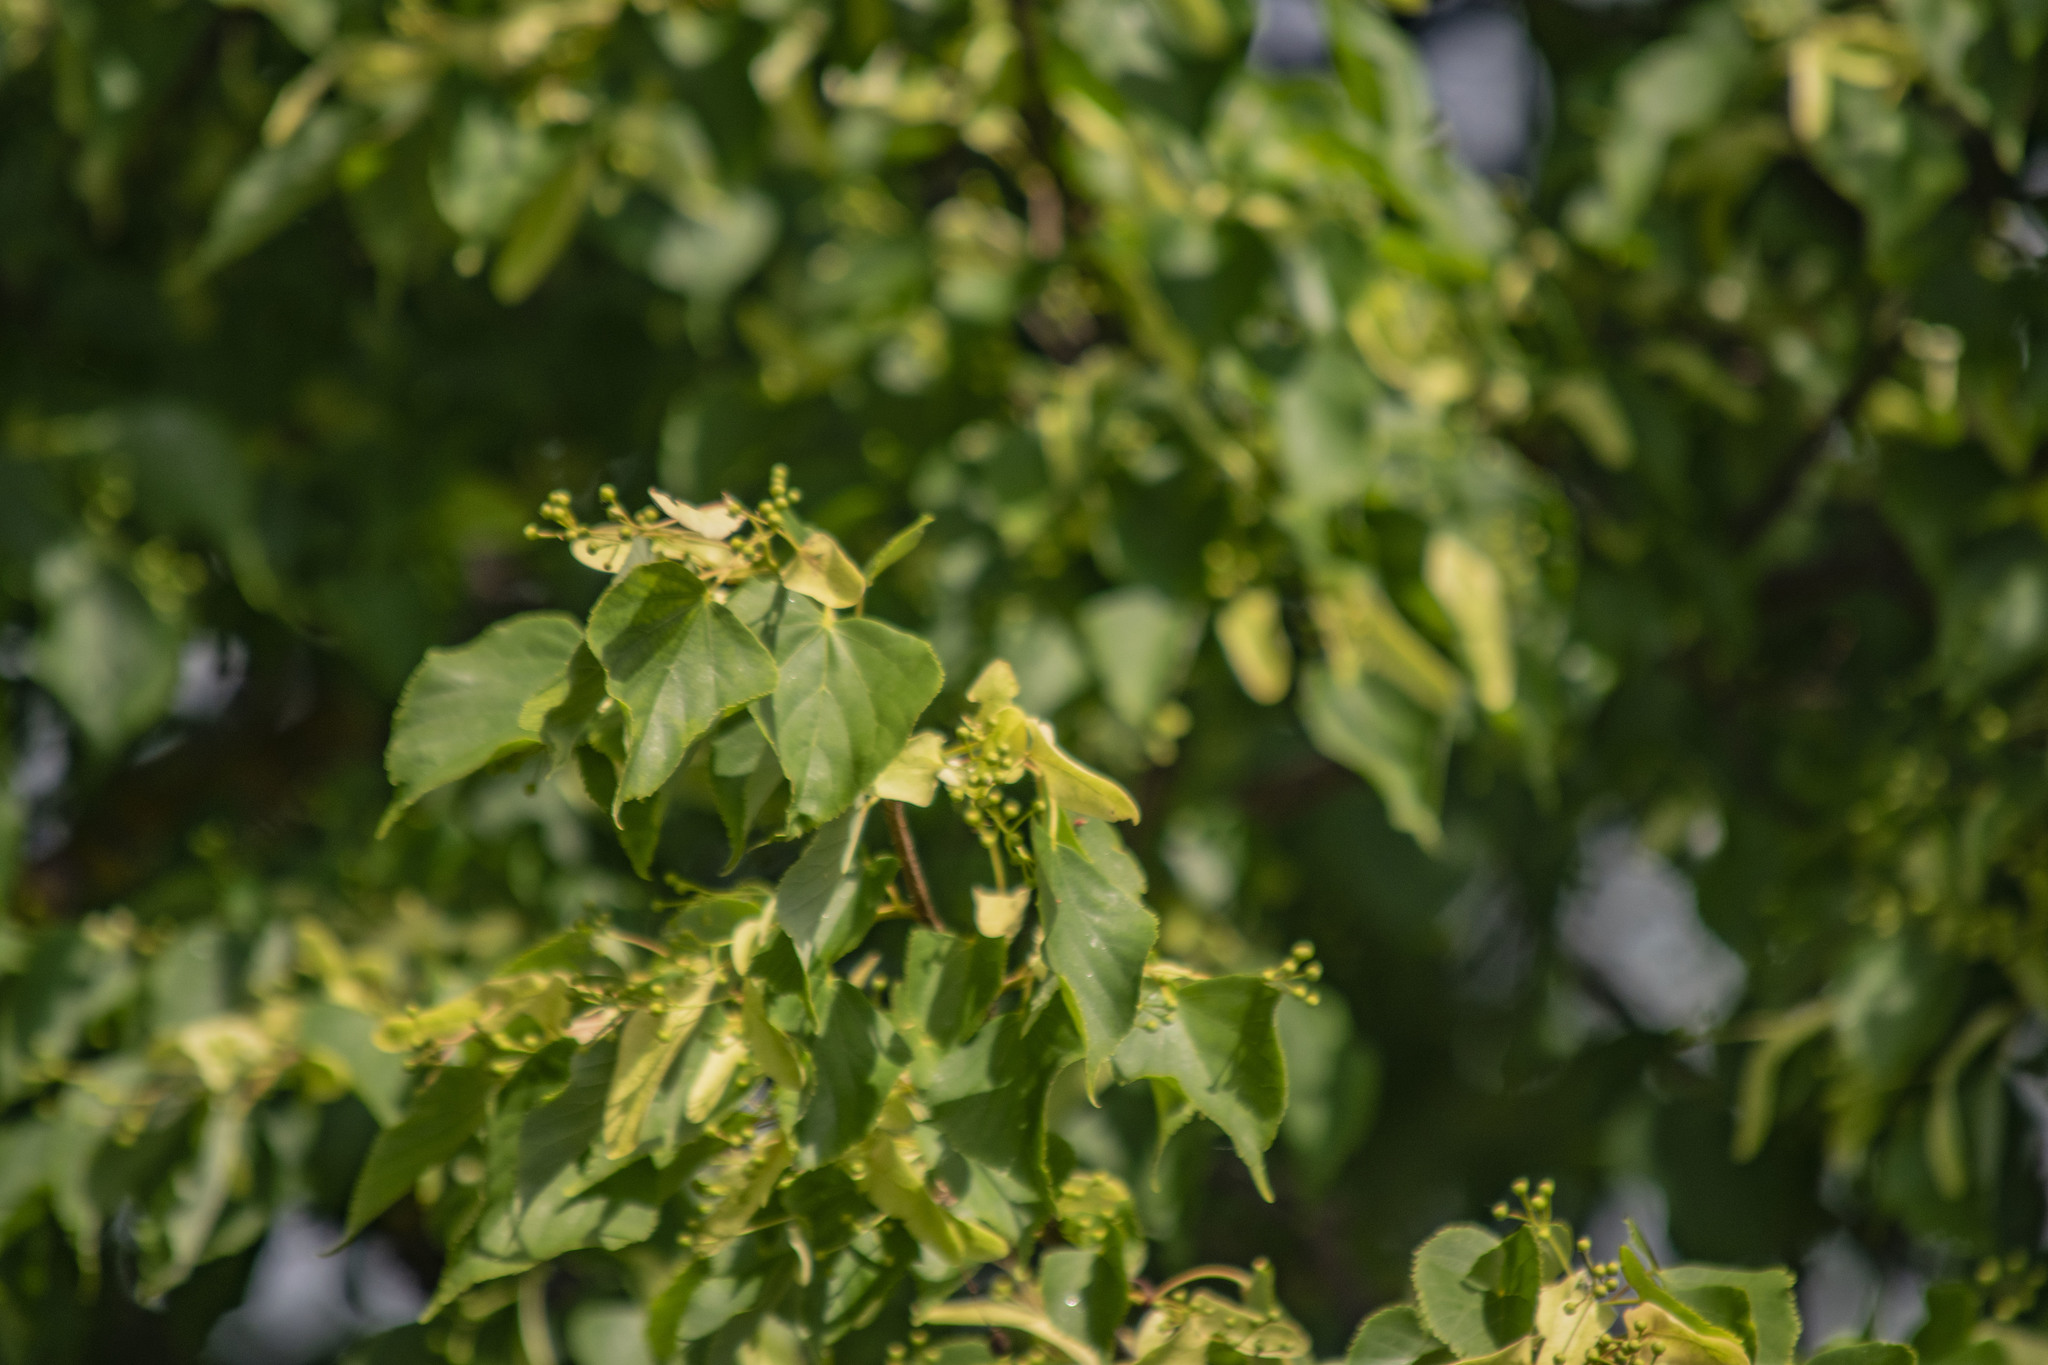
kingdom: Plantae
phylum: Tracheophyta
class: Magnoliopsida
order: Malvales
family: Malvaceae
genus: Tilia
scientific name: Tilia cordata
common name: Small-leaved lime
